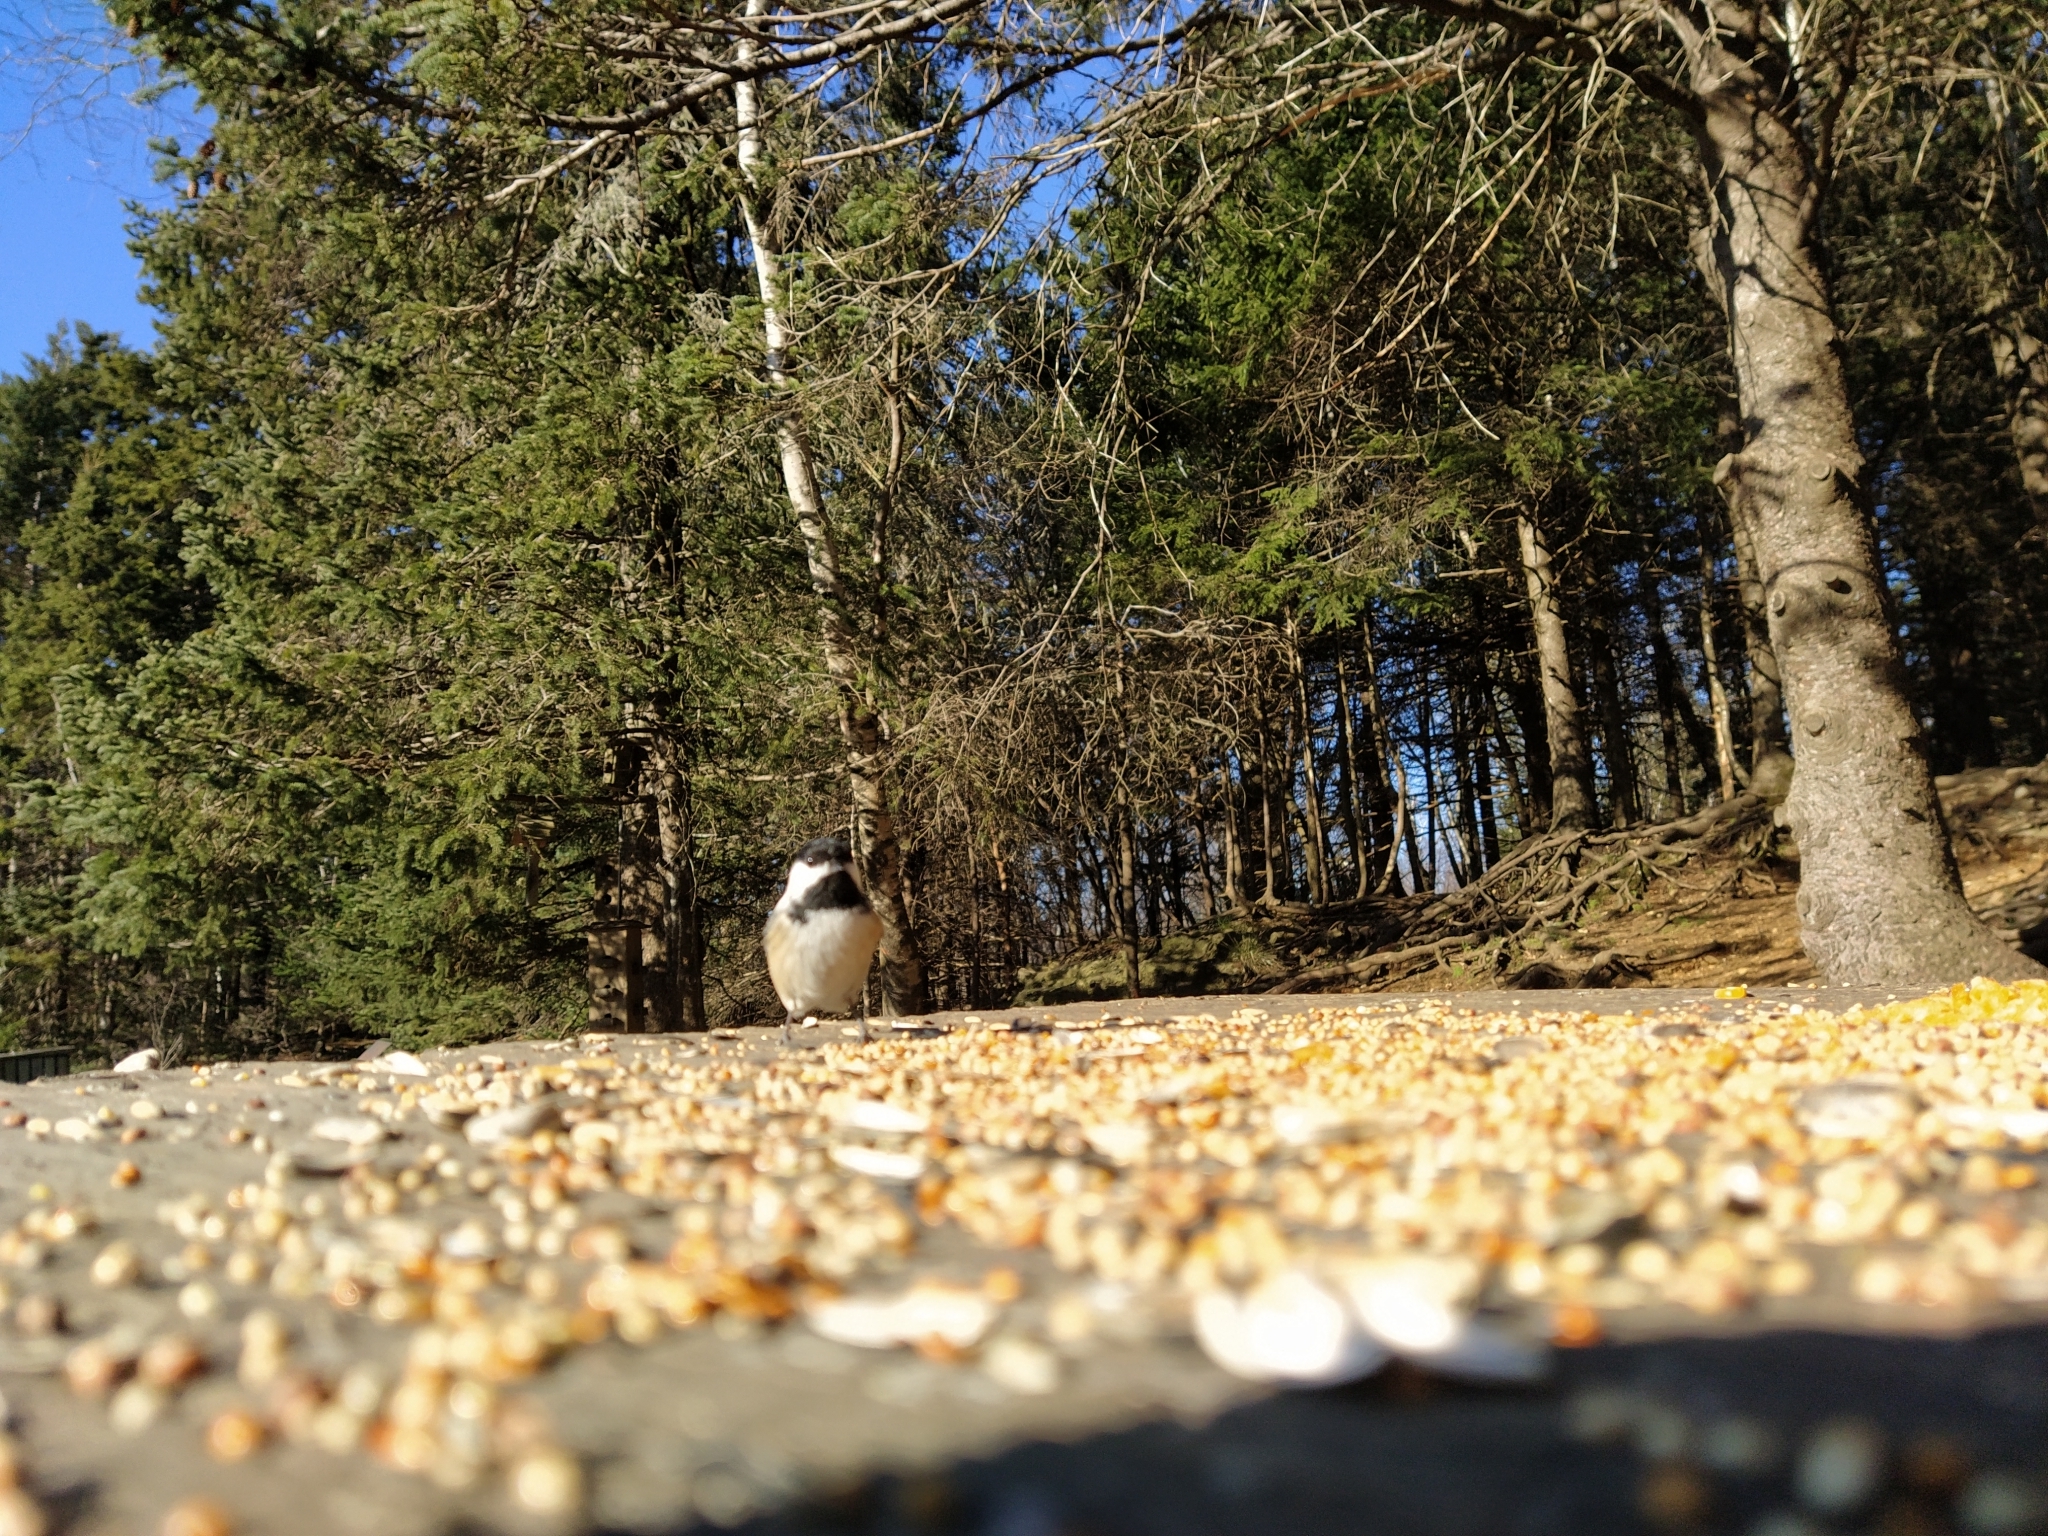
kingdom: Animalia
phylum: Chordata
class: Aves
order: Passeriformes
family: Paridae
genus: Poecile
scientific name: Poecile atricapillus
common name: Black-capped chickadee
